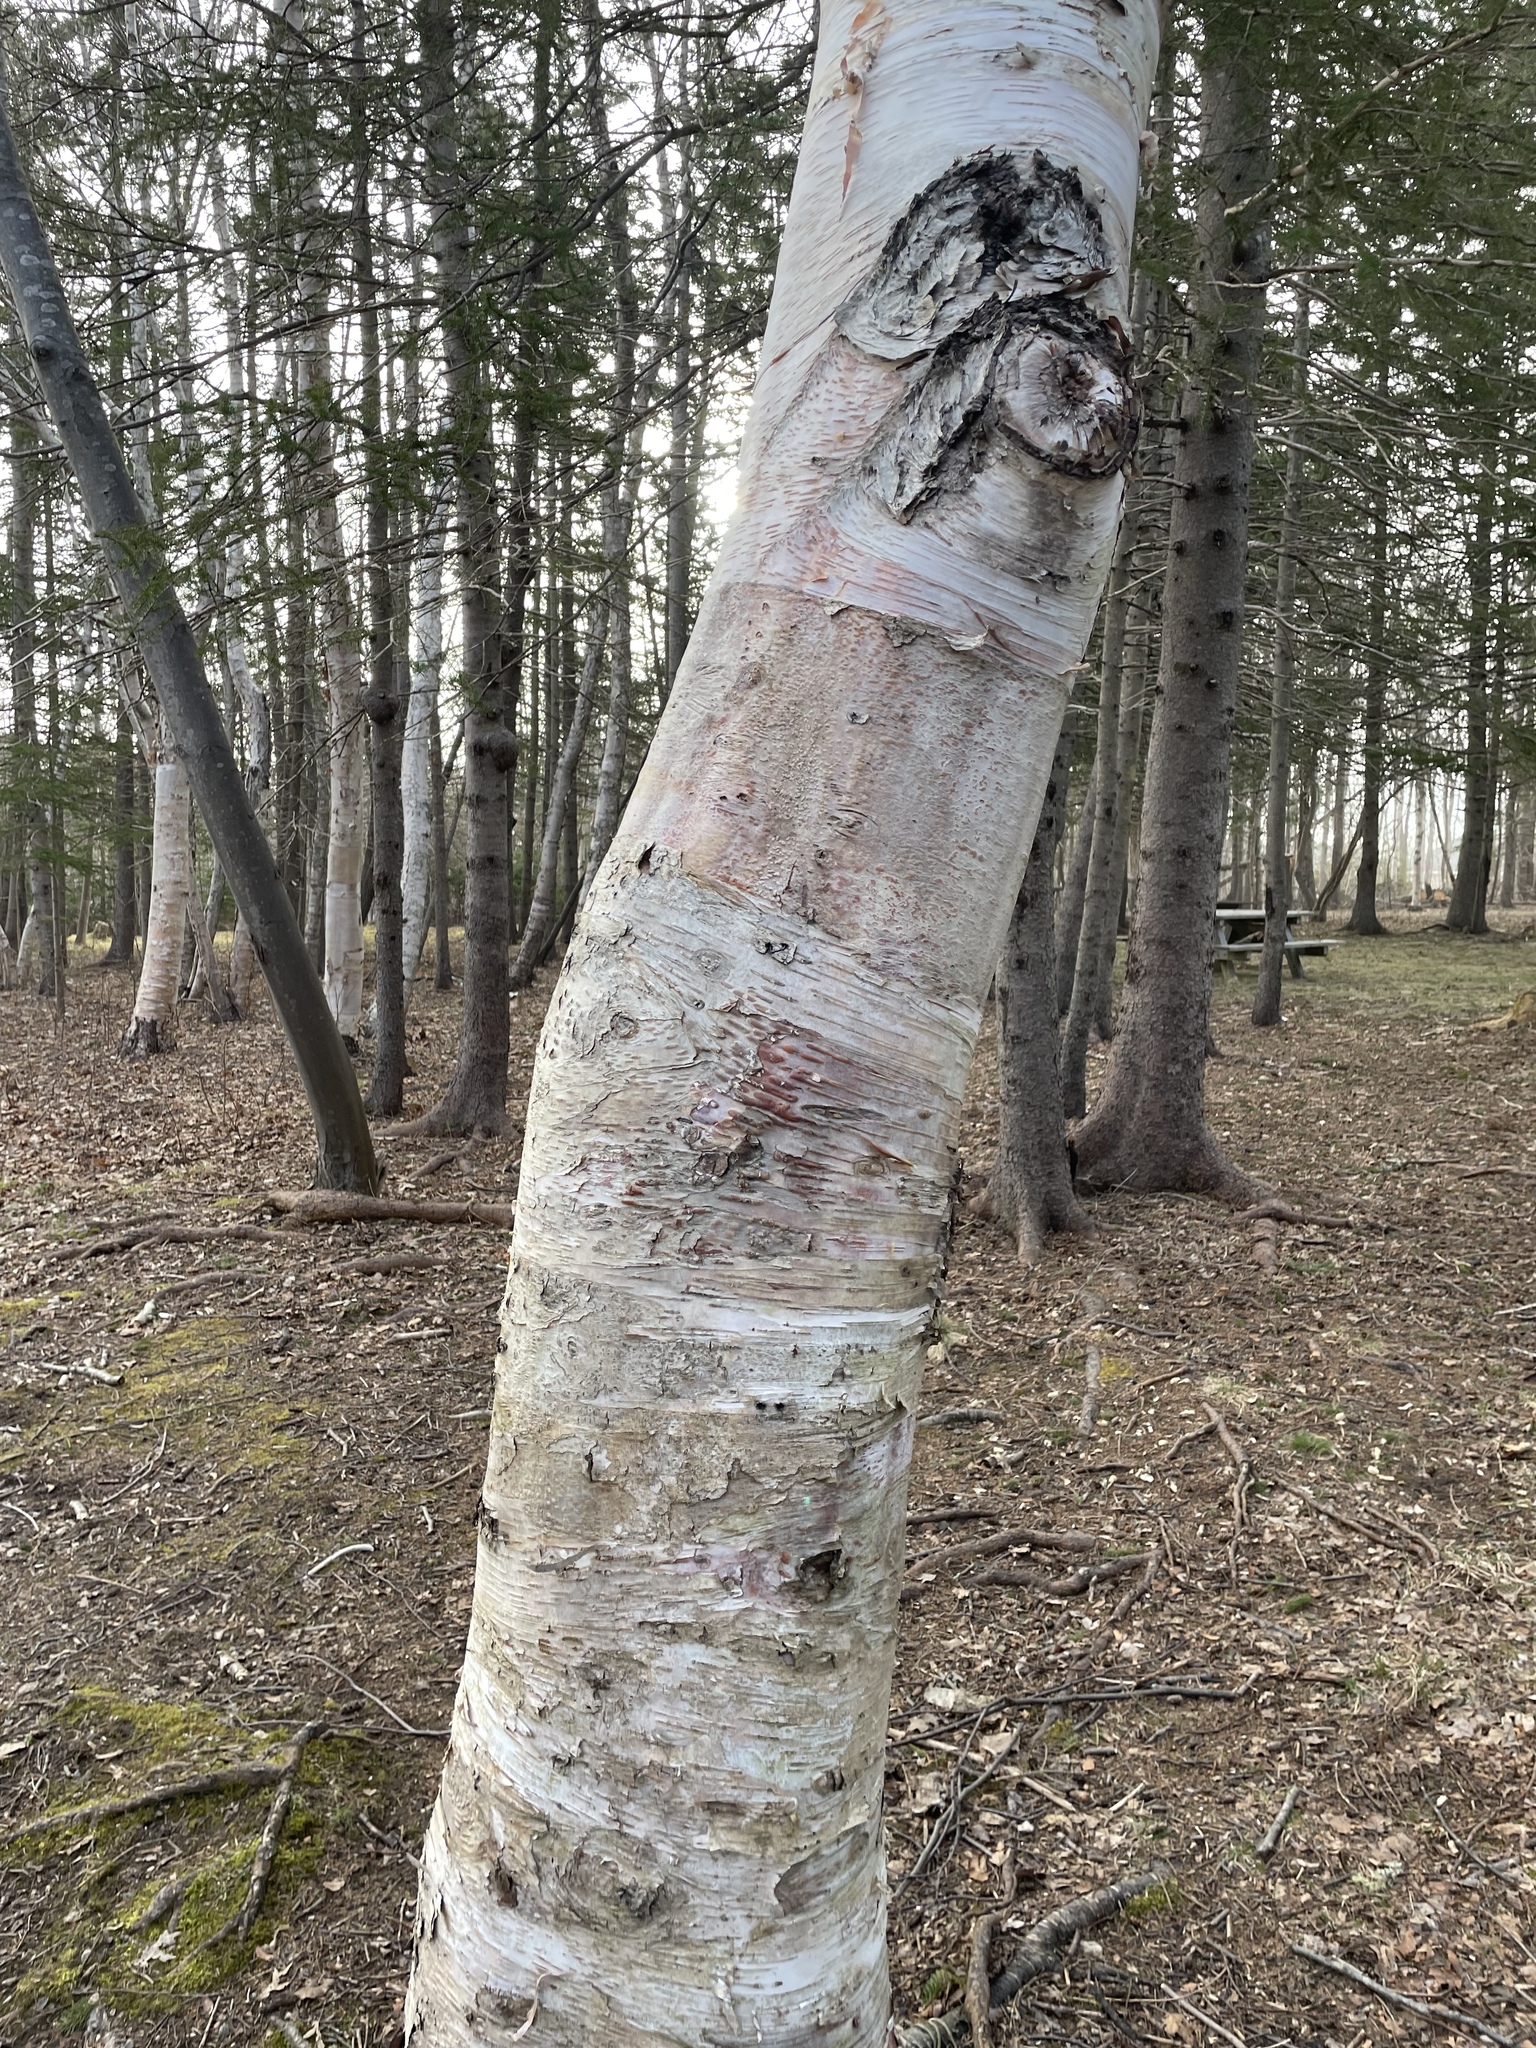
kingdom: Plantae
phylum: Tracheophyta
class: Magnoliopsida
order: Fagales
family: Betulaceae
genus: Betula
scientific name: Betula papyrifera
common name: Paper birch
